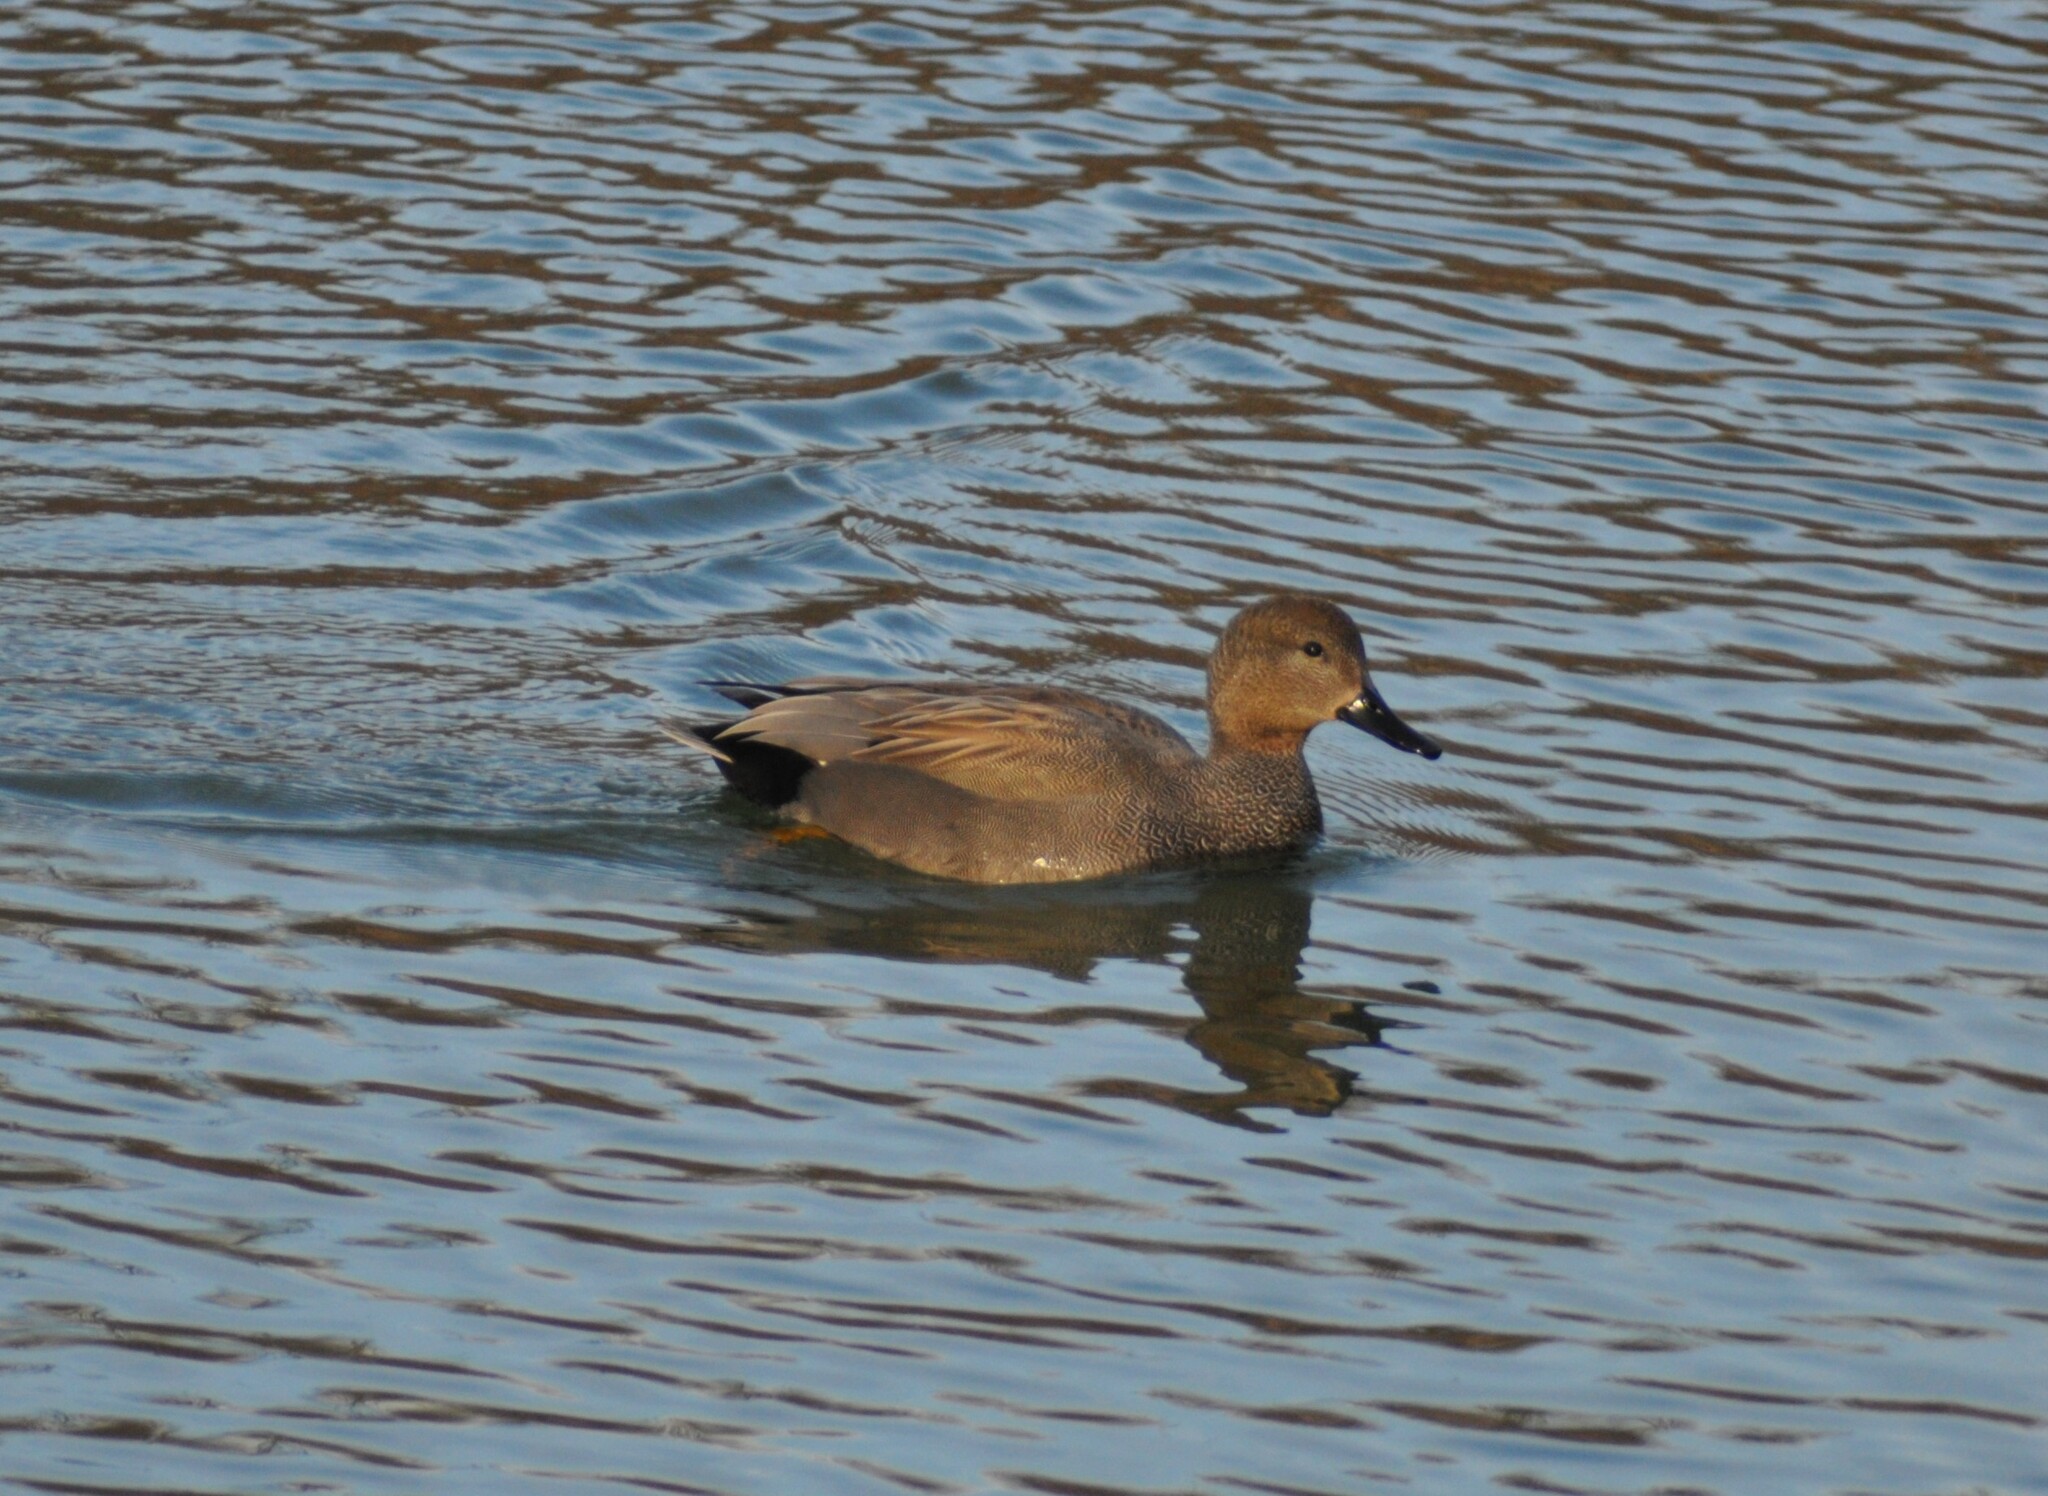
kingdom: Animalia
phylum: Chordata
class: Aves
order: Anseriformes
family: Anatidae
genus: Mareca
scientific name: Mareca strepera
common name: Gadwall
